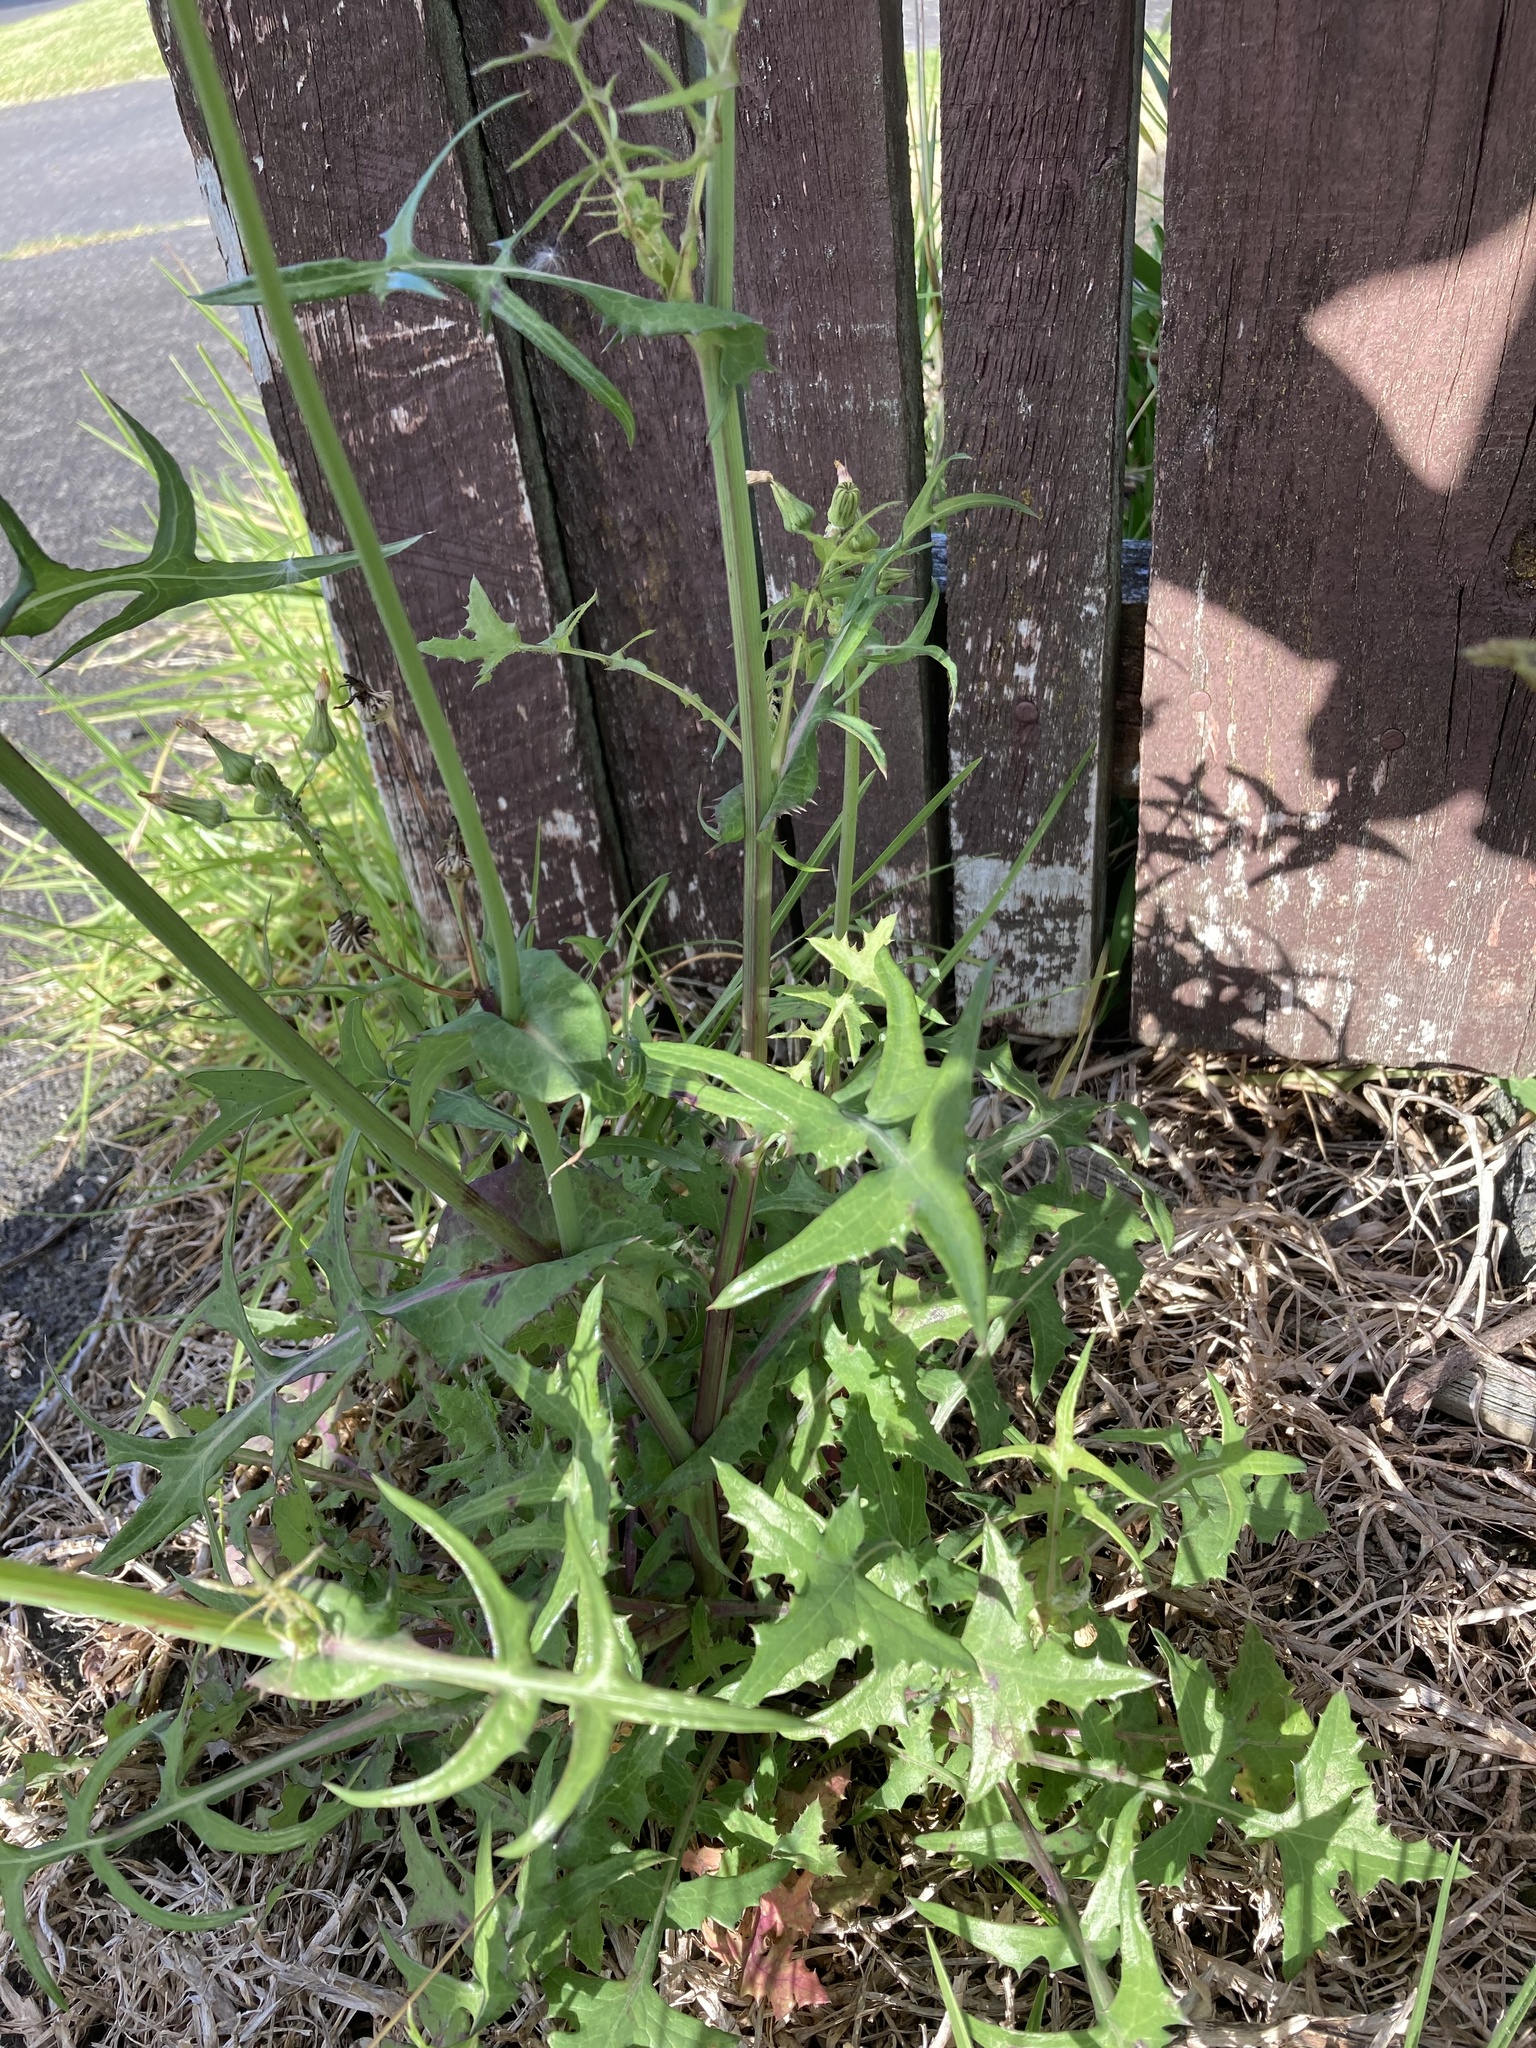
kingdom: Plantae
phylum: Tracheophyta
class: Magnoliopsida
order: Asterales
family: Asteraceae
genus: Sonchus
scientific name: Sonchus oleraceus
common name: Common sowthistle
